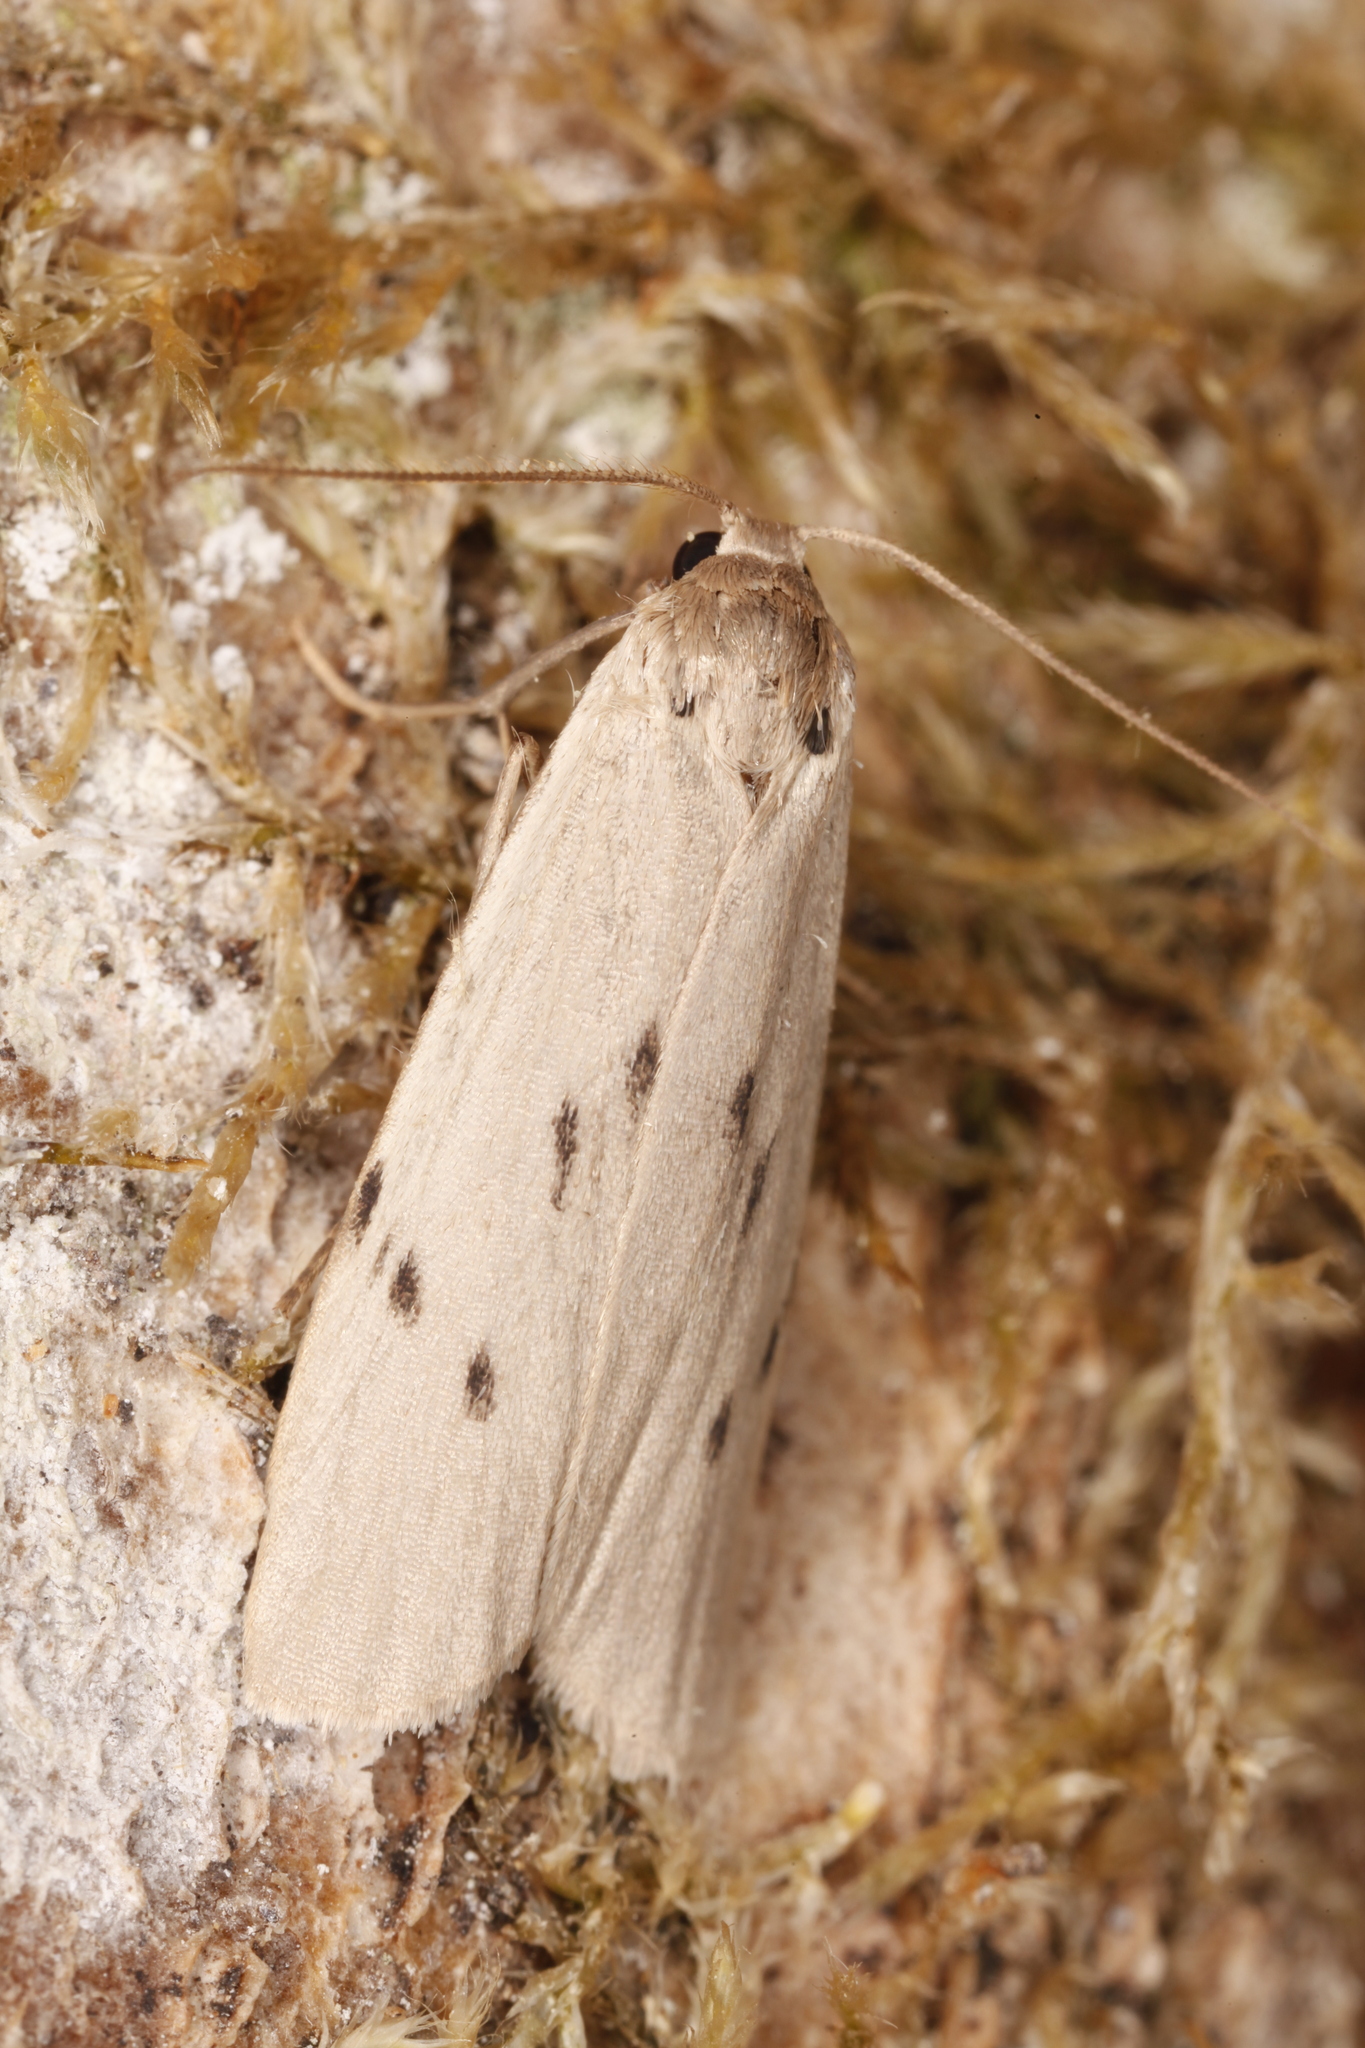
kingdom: Animalia
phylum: Arthropoda
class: Insecta
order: Lepidoptera
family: Erebidae
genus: Pelosia
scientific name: Pelosia muscerda
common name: Dotted footman
